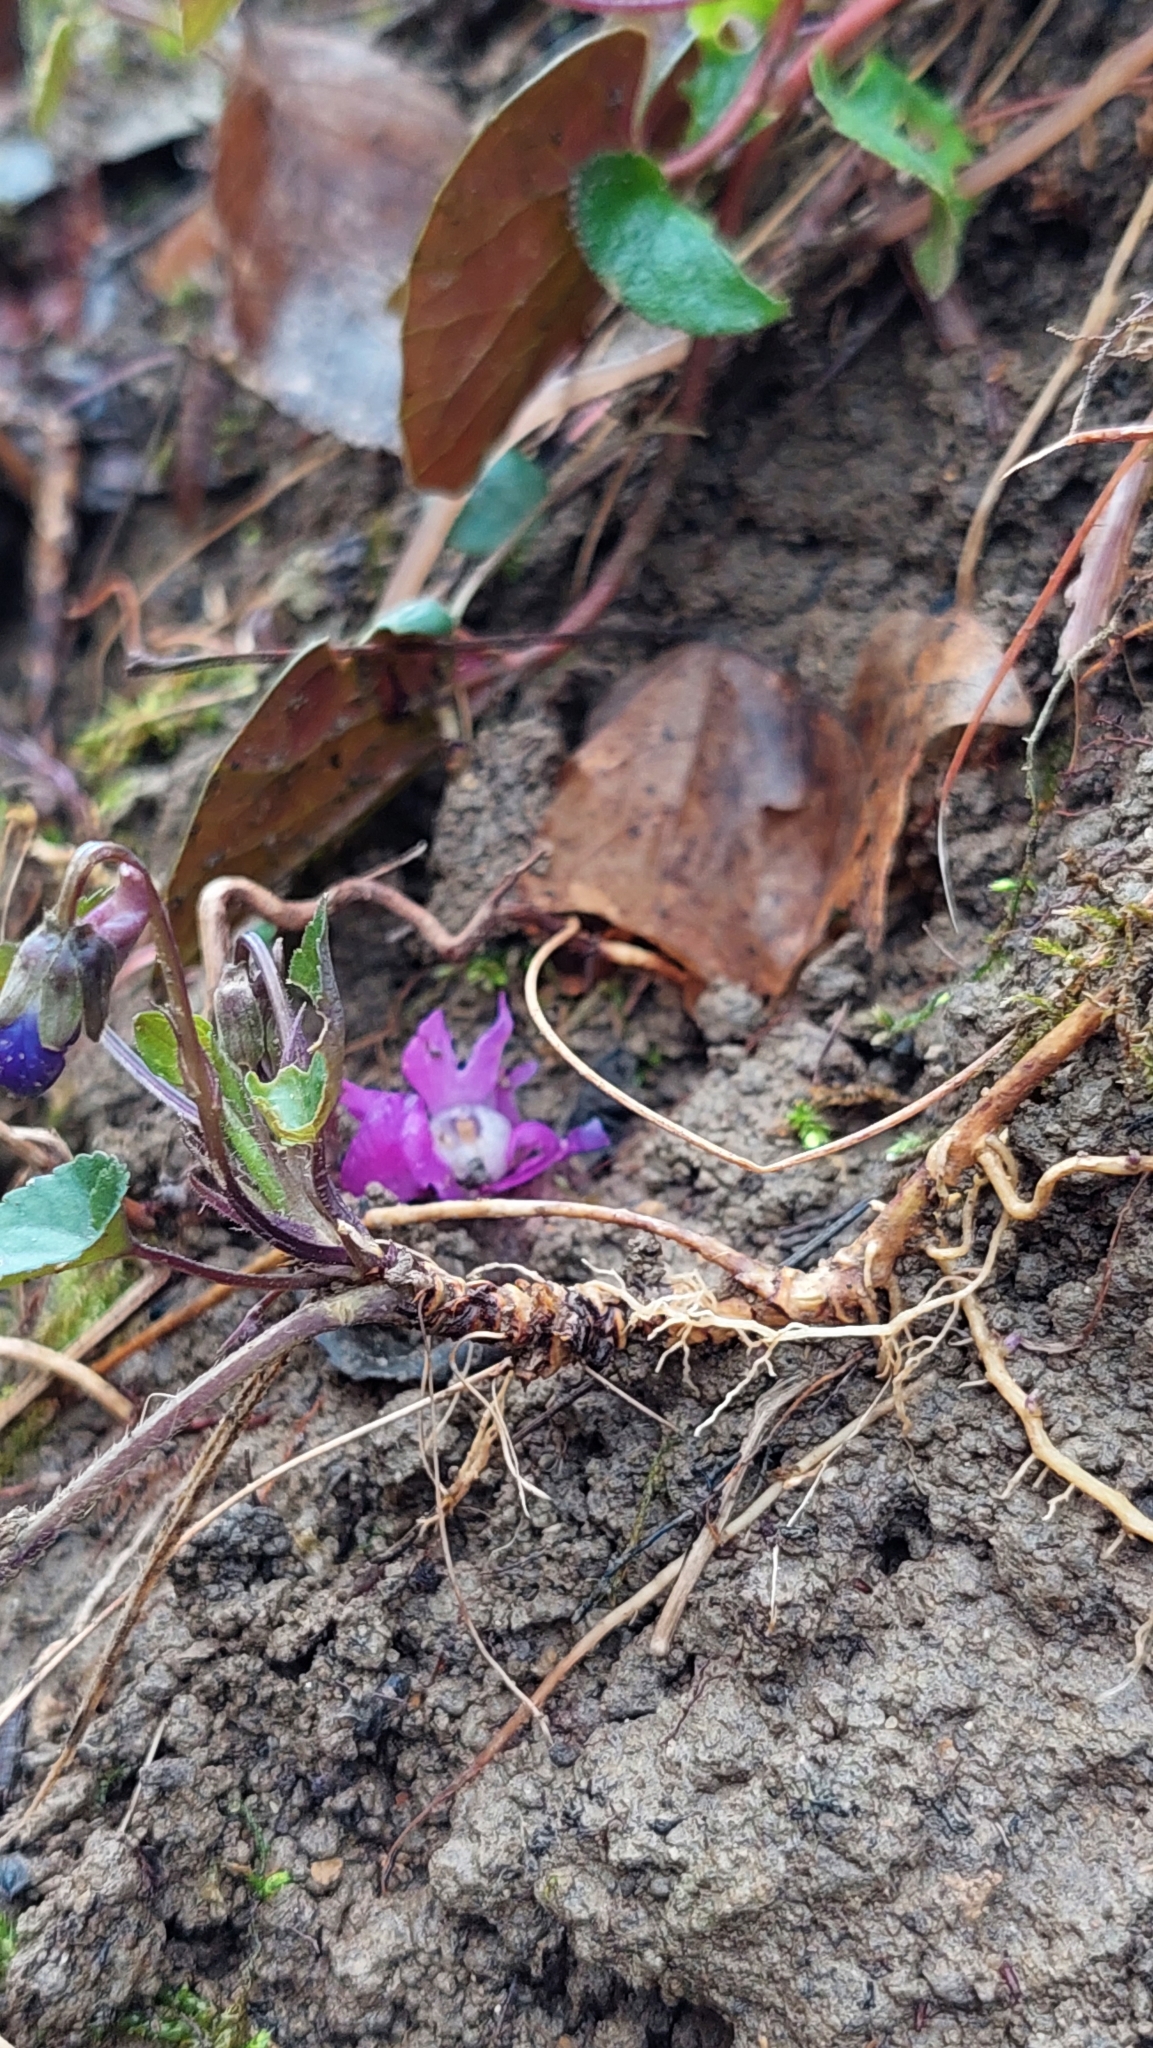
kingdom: Plantae
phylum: Tracheophyta
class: Magnoliopsida
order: Malpighiales
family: Violaceae
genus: Viola
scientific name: Viola alba
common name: White violet
